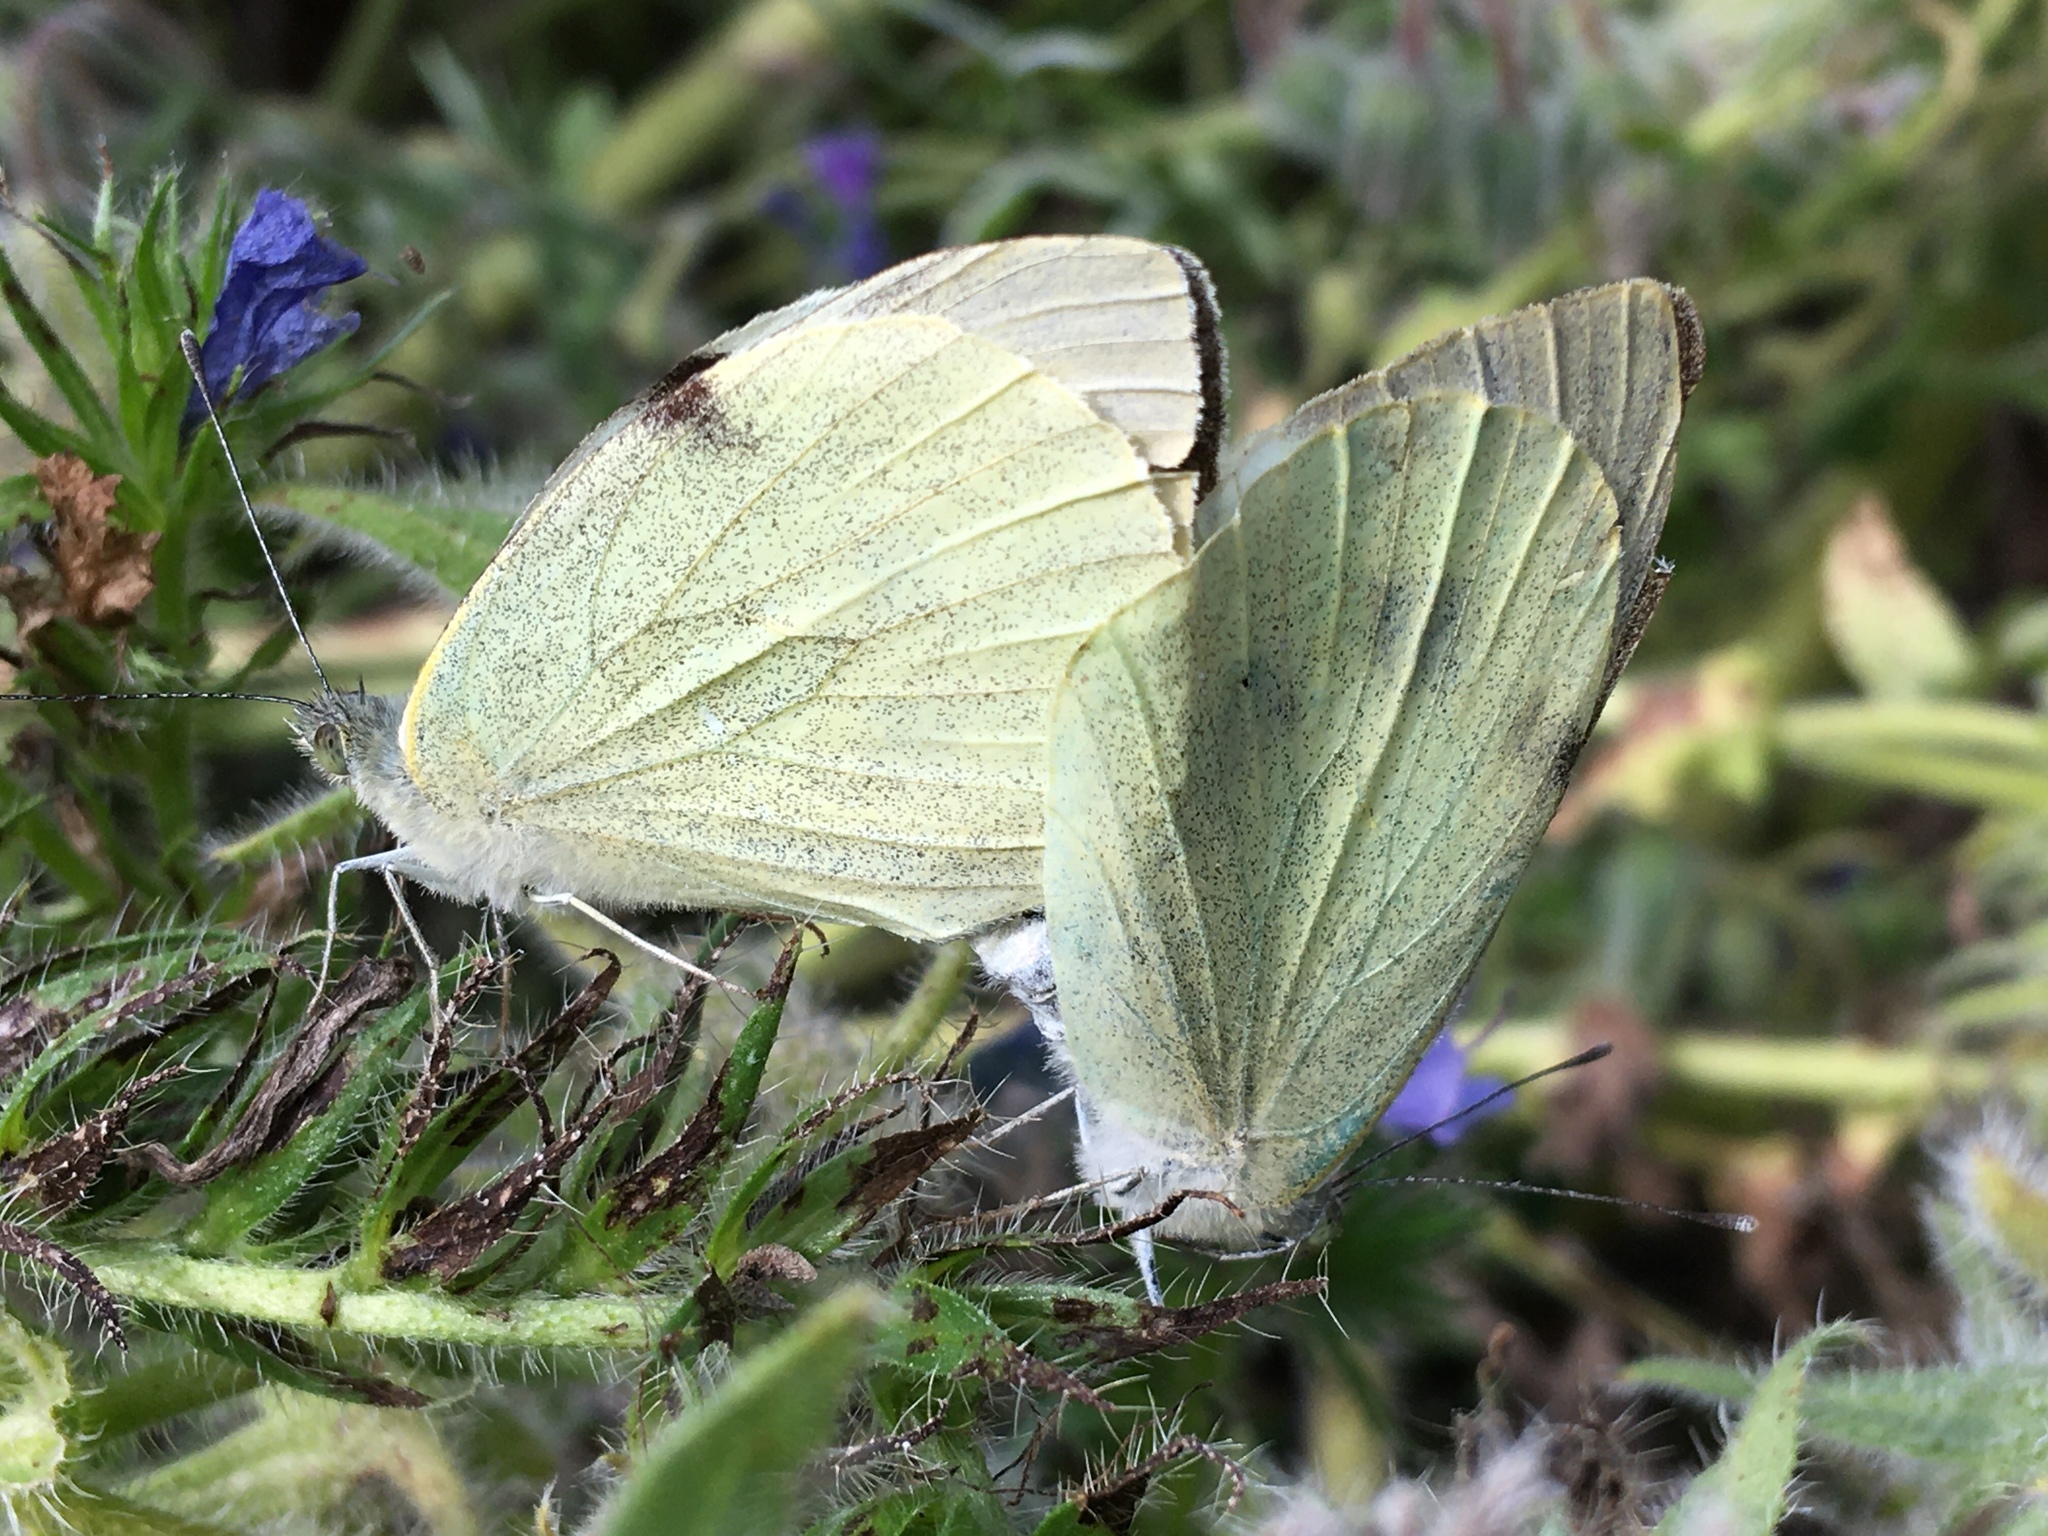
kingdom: Animalia
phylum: Arthropoda
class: Insecta
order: Lepidoptera
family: Pieridae
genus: Pieris
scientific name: Pieris brassicae
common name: Large white
